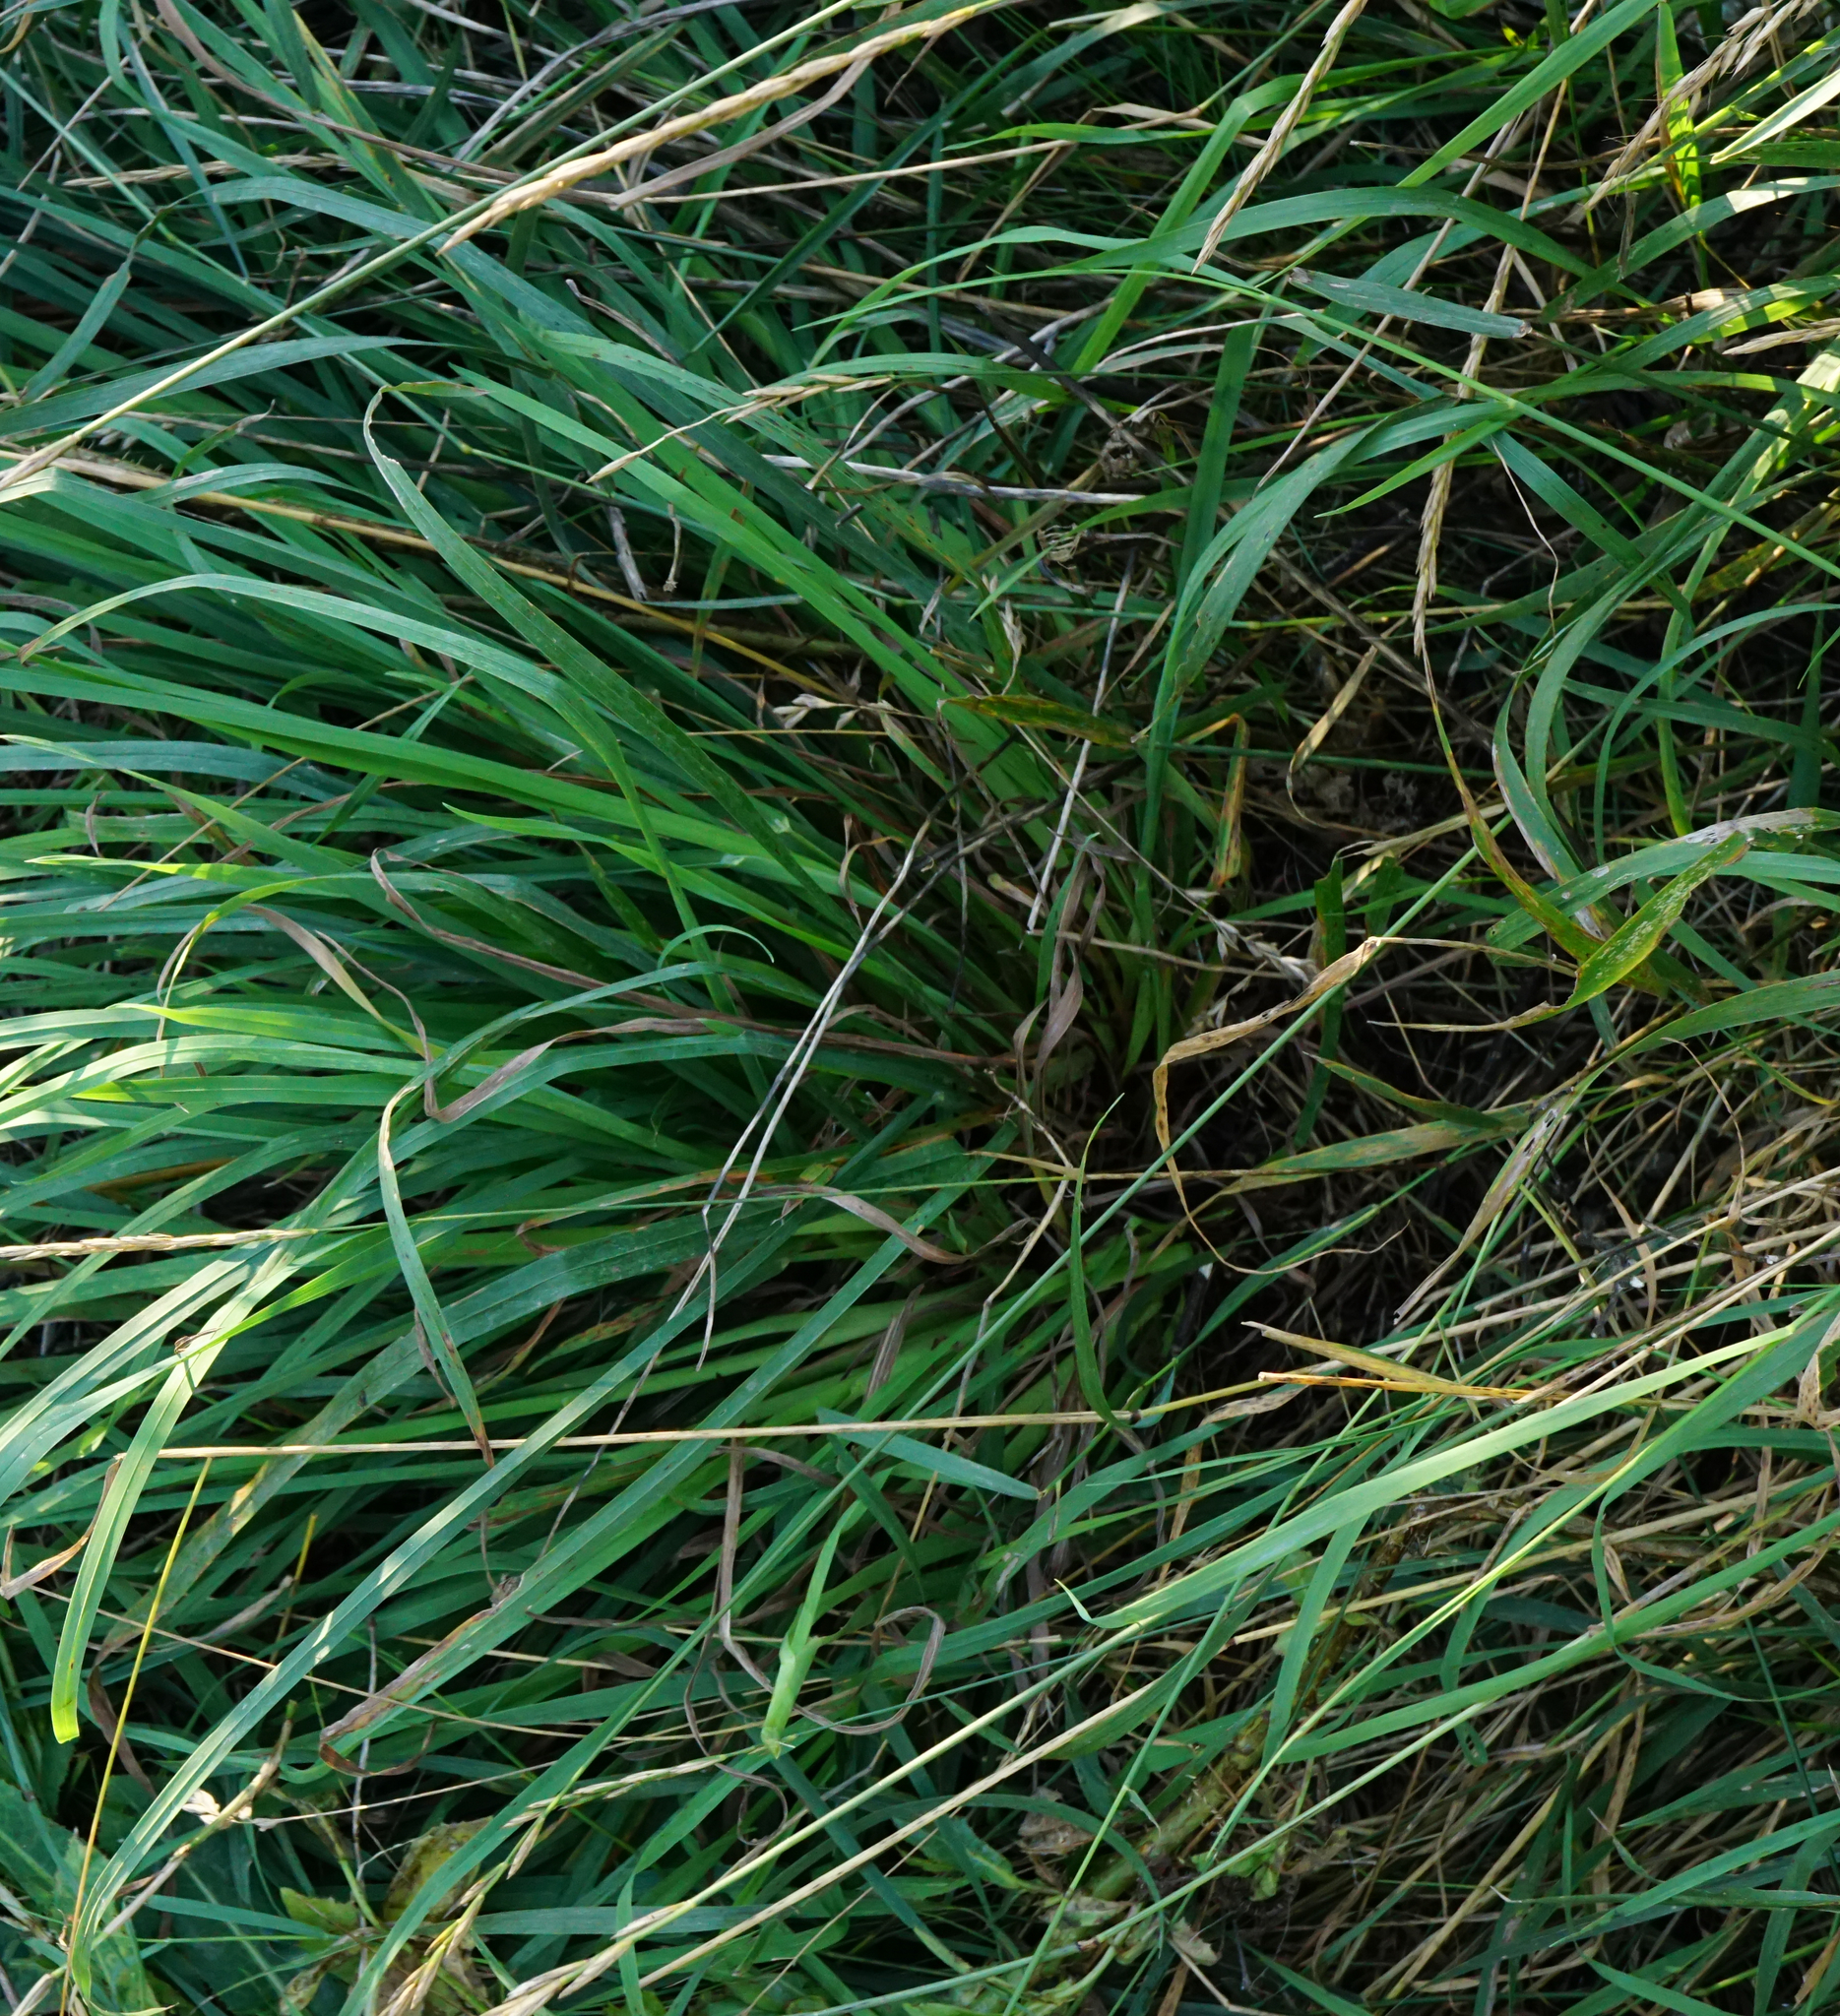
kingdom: Plantae
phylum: Tracheophyta
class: Liliopsida
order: Poales
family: Poaceae
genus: Bromus
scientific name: Bromus hordeaceus
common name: Soft brome
